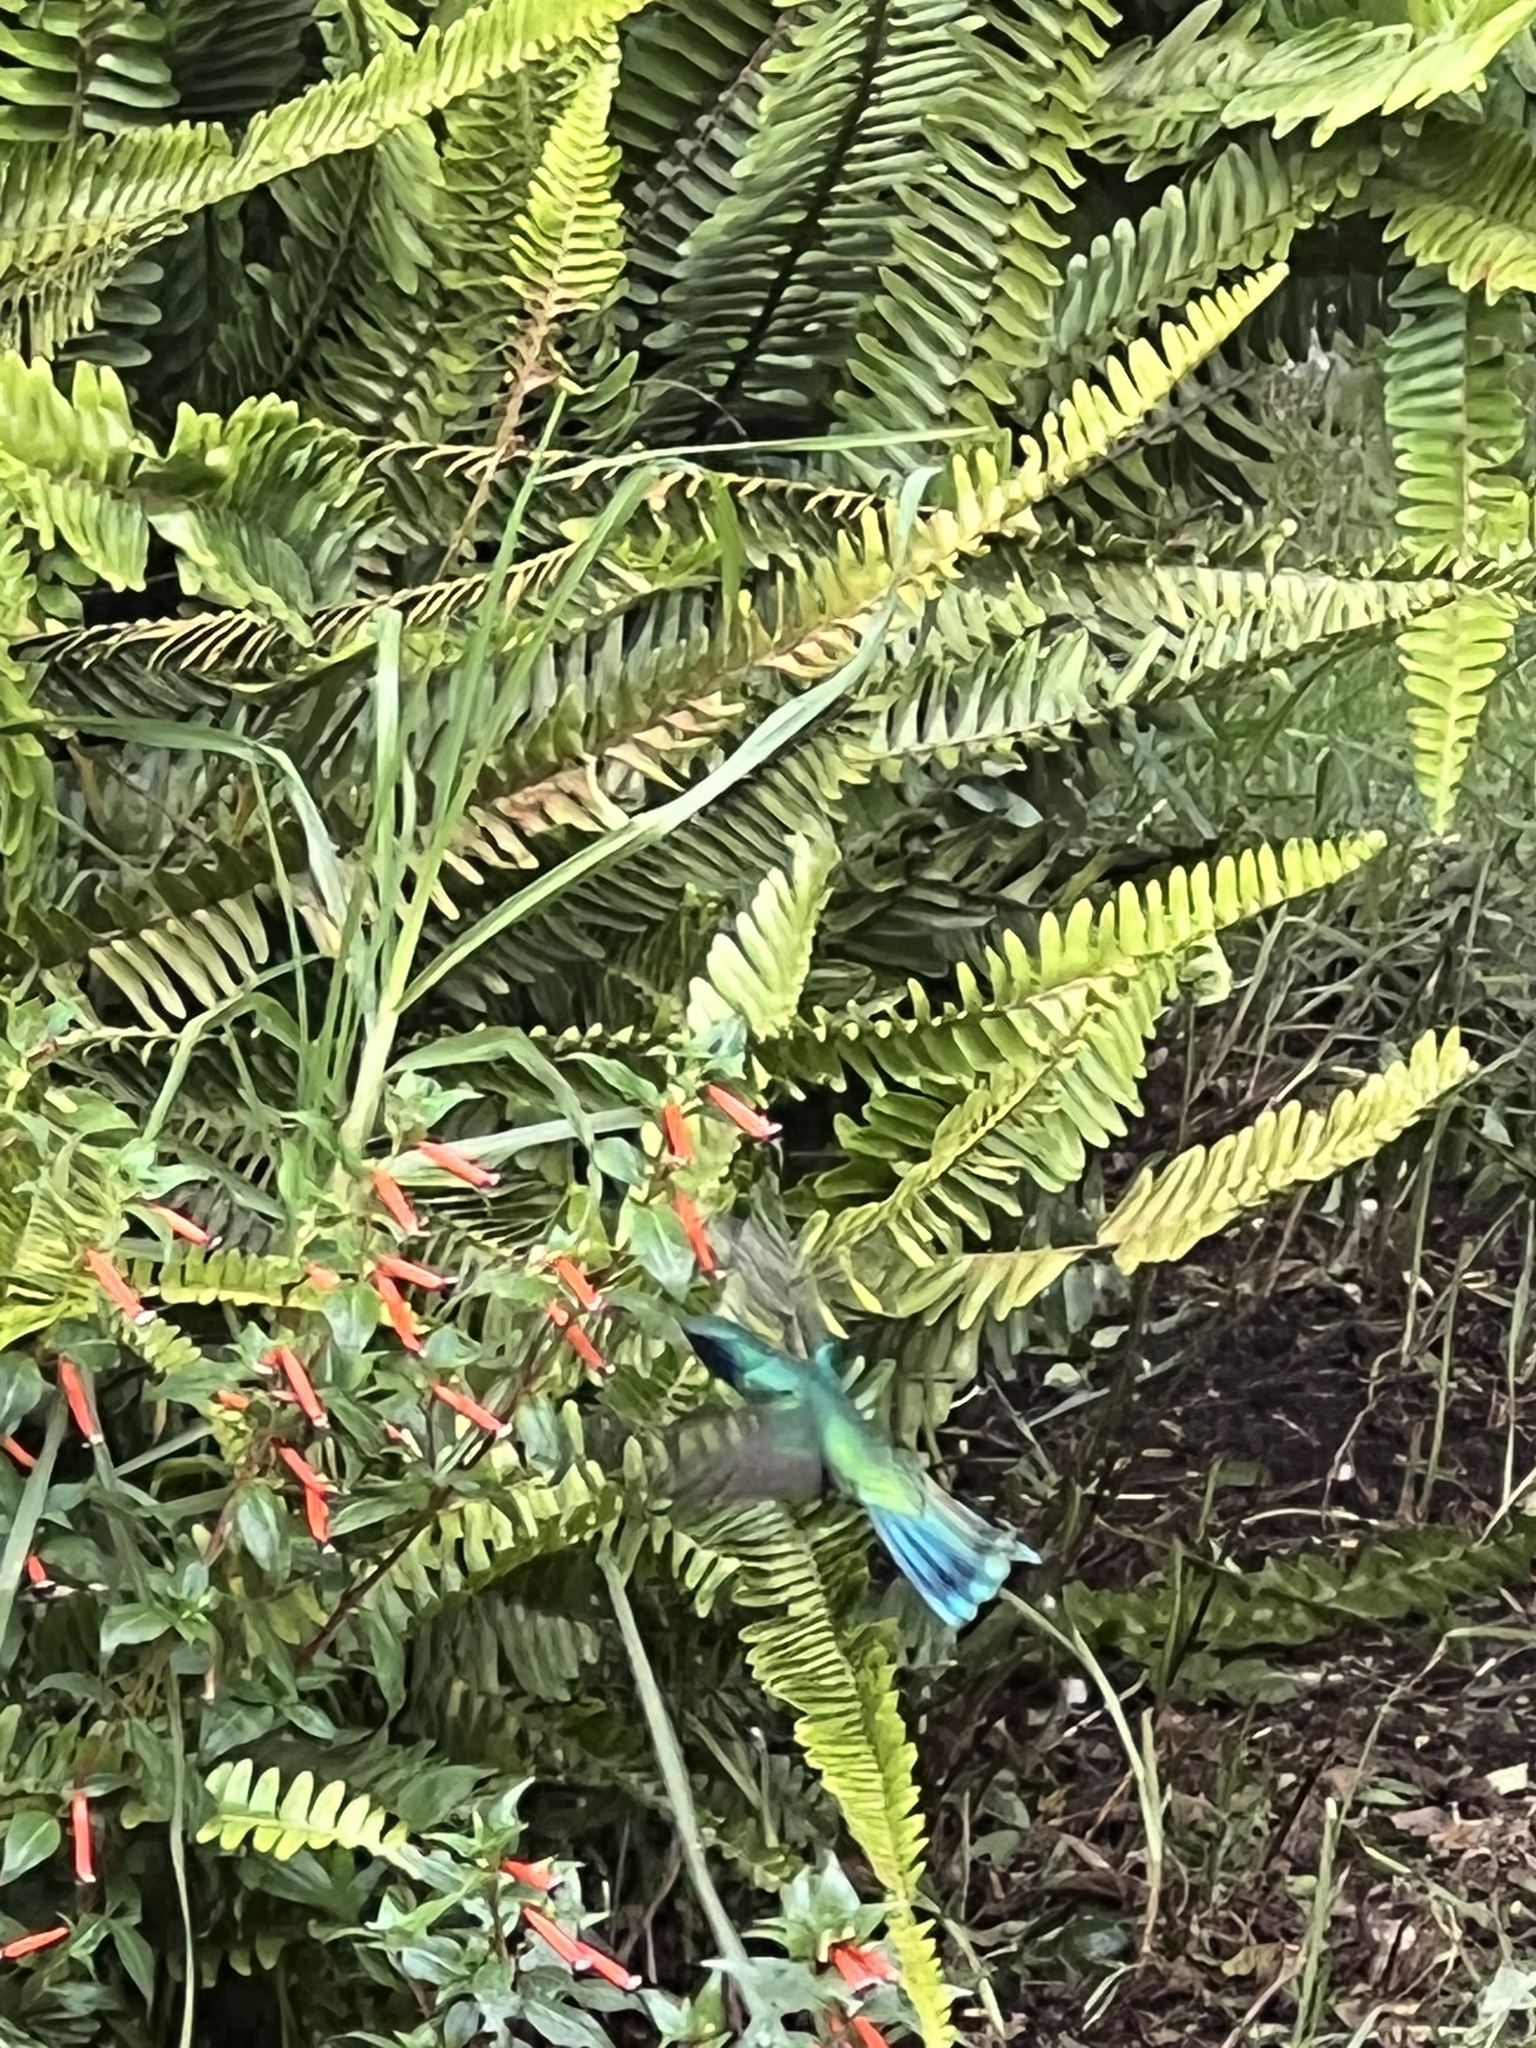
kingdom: Animalia
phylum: Chordata
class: Aves
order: Apodiformes
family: Trochilidae
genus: Colibri
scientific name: Colibri cyanotus
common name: Lesser violetear
